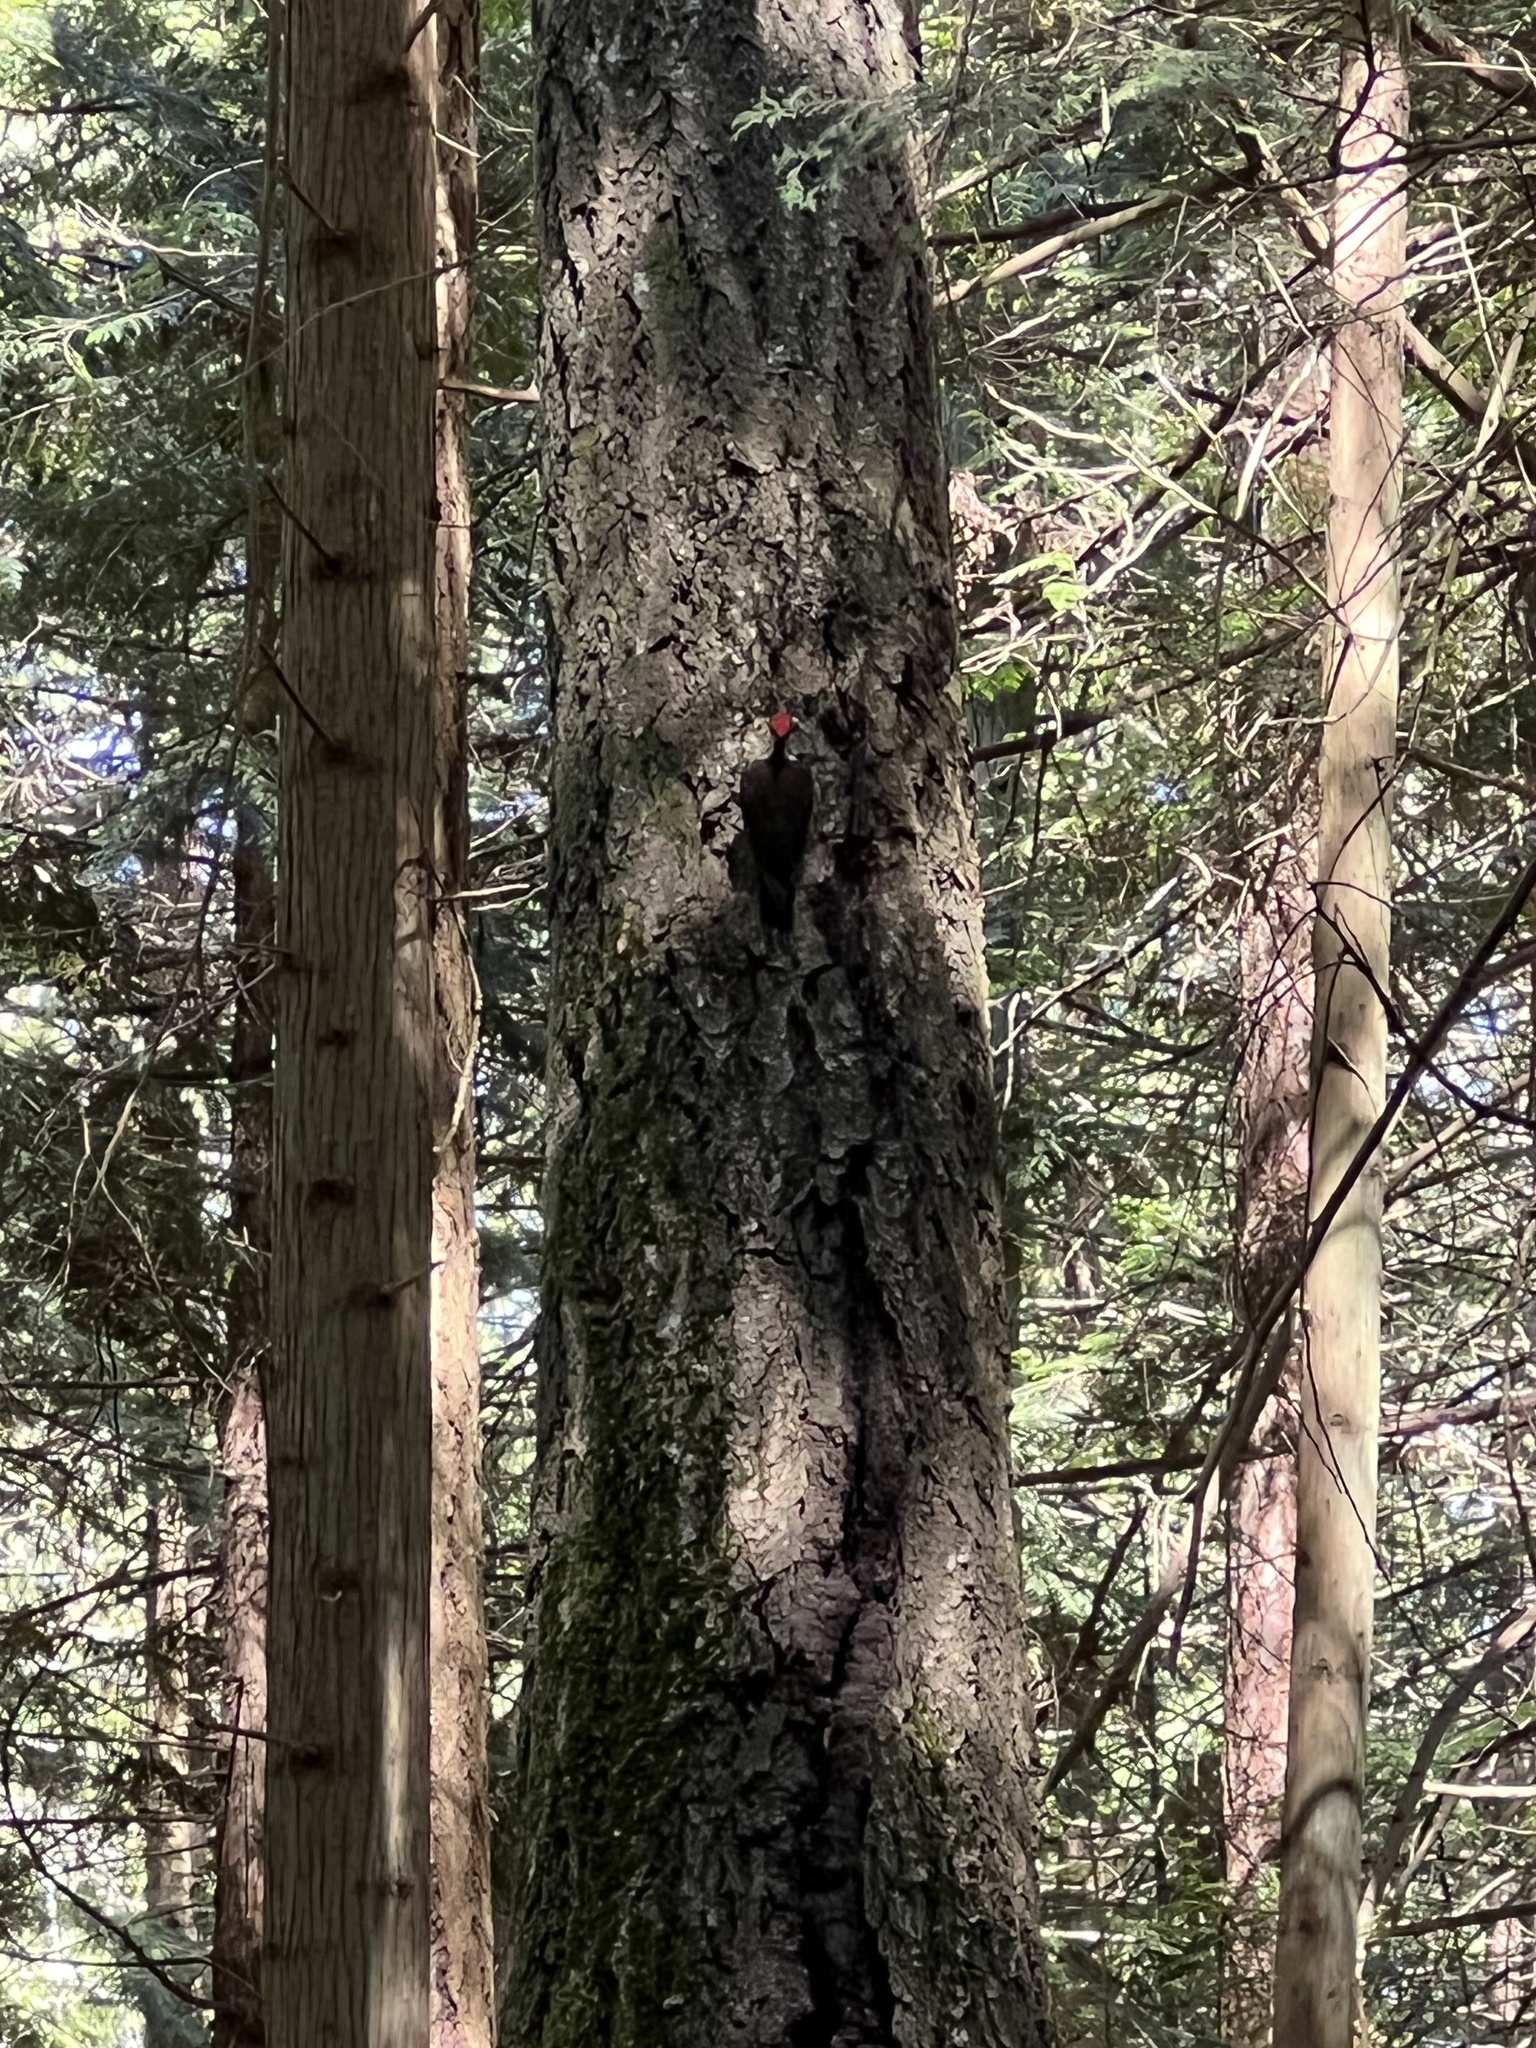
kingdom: Animalia
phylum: Chordata
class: Aves
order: Piciformes
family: Picidae
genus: Dryocopus
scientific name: Dryocopus pileatus
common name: Pileated woodpecker
